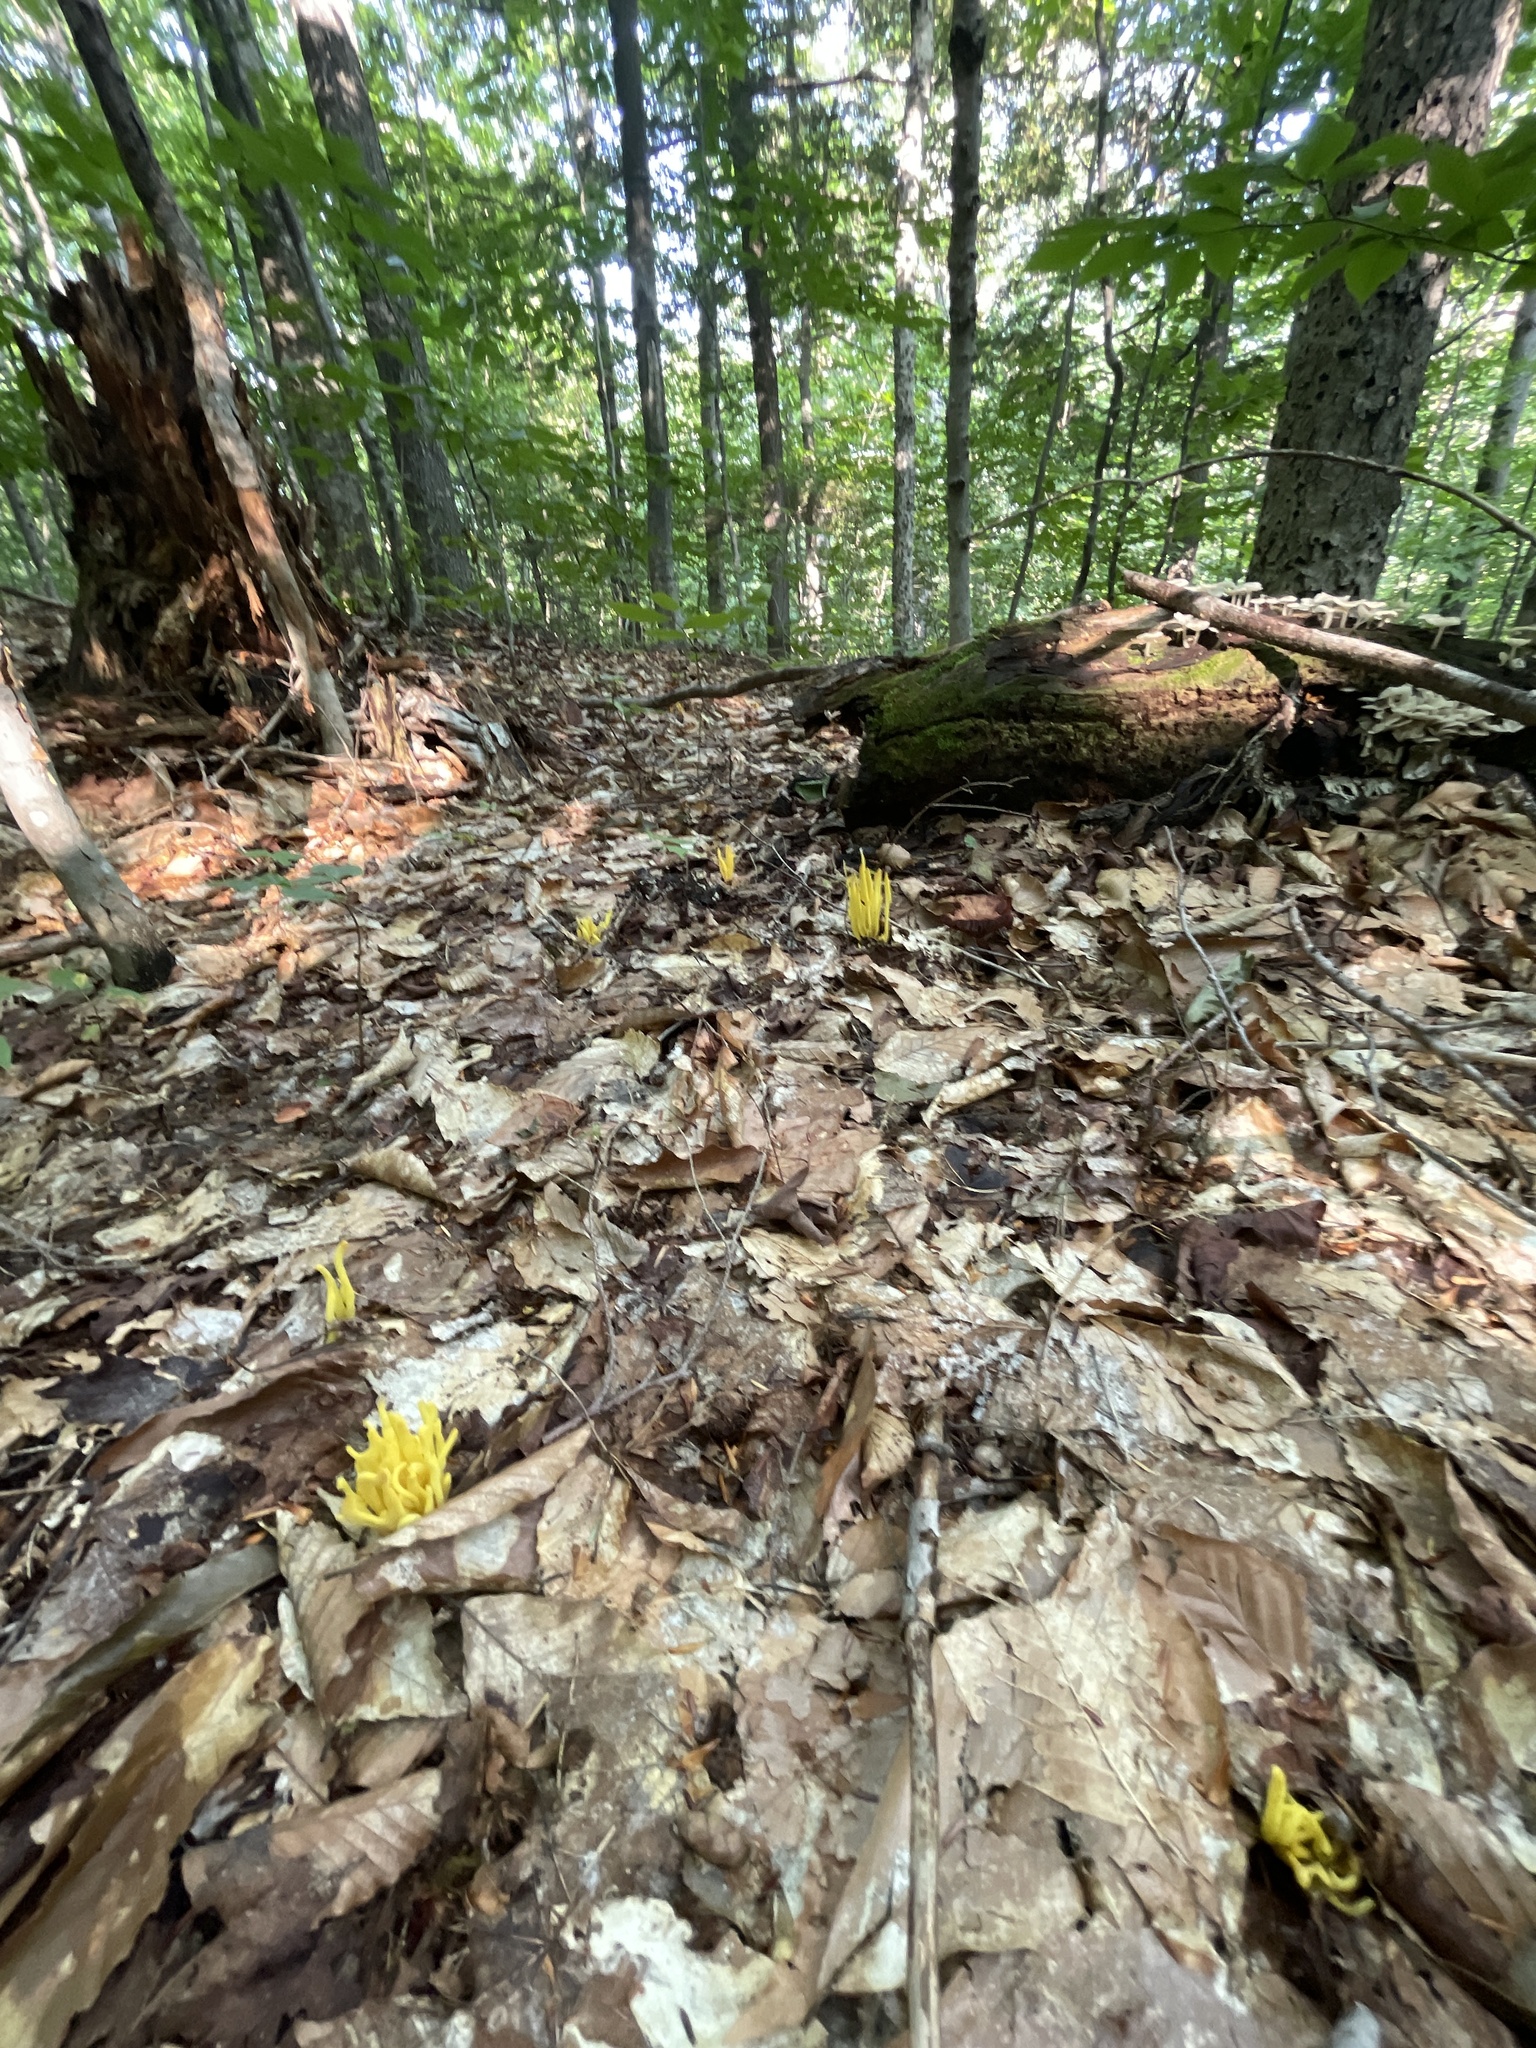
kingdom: Fungi
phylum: Basidiomycota
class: Agaricomycetes
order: Agaricales
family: Clavariaceae
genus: Clavulinopsis
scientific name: Clavulinopsis fusiformis
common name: Golden spindles
